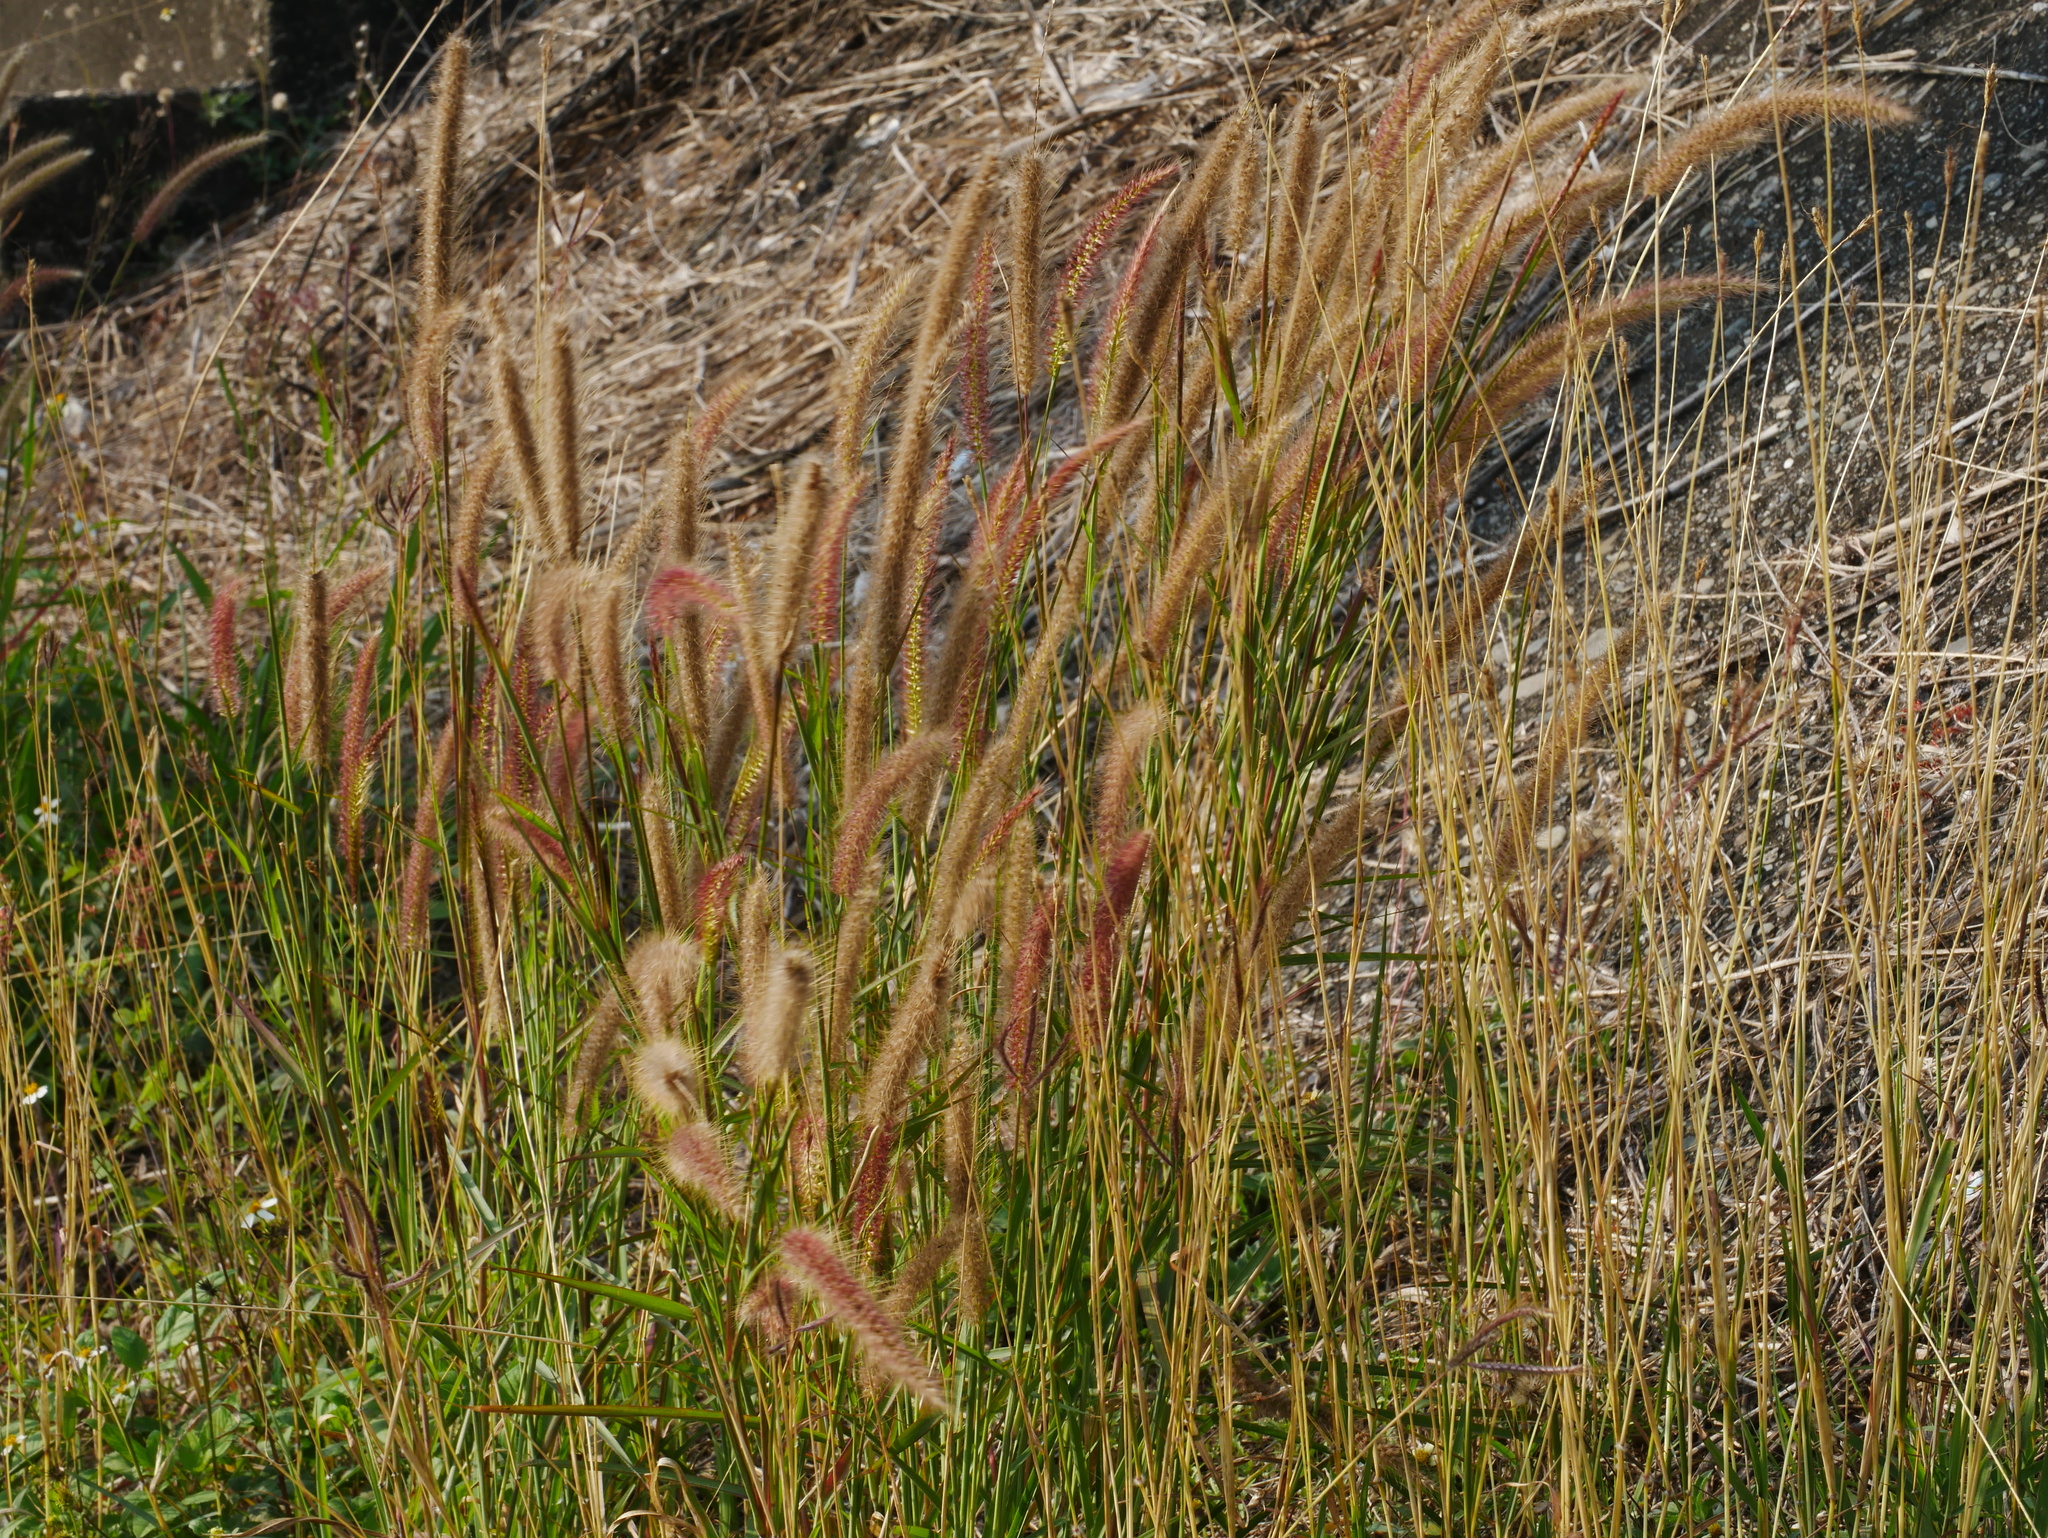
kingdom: Plantae
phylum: Tracheophyta
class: Liliopsida
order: Poales
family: Poaceae
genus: Cenchrus
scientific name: Cenchrus setosus
